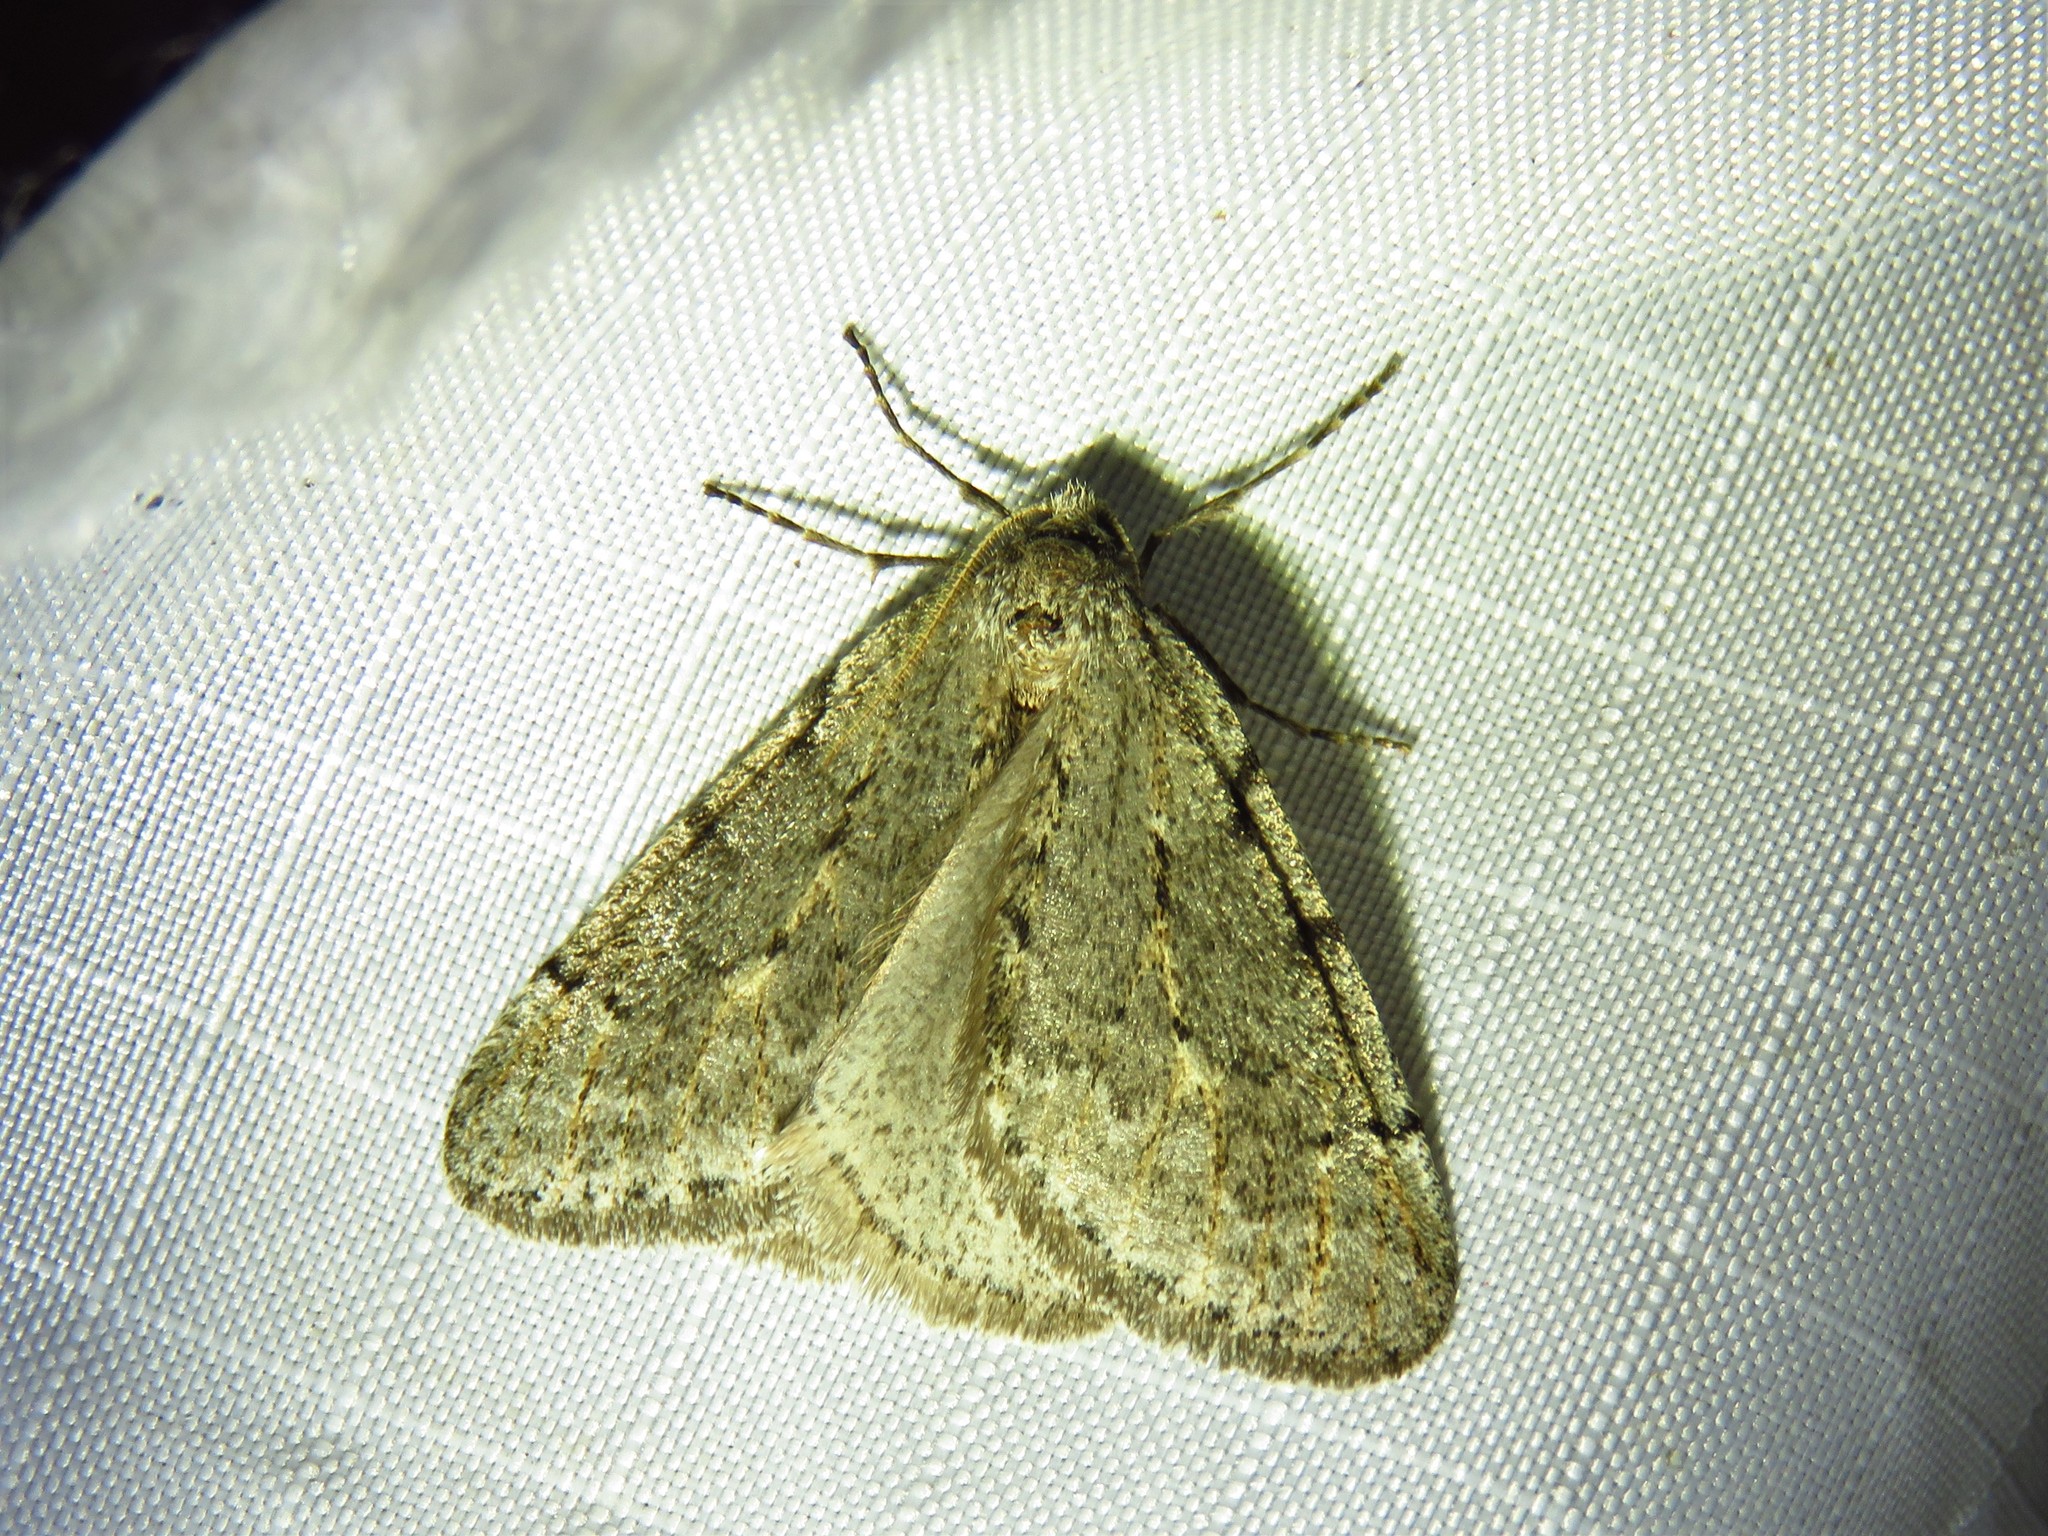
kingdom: Animalia
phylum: Arthropoda
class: Insecta
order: Lepidoptera
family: Geometridae
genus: Paleacrita
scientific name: Paleacrita vernata
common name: Spring cankerworm
